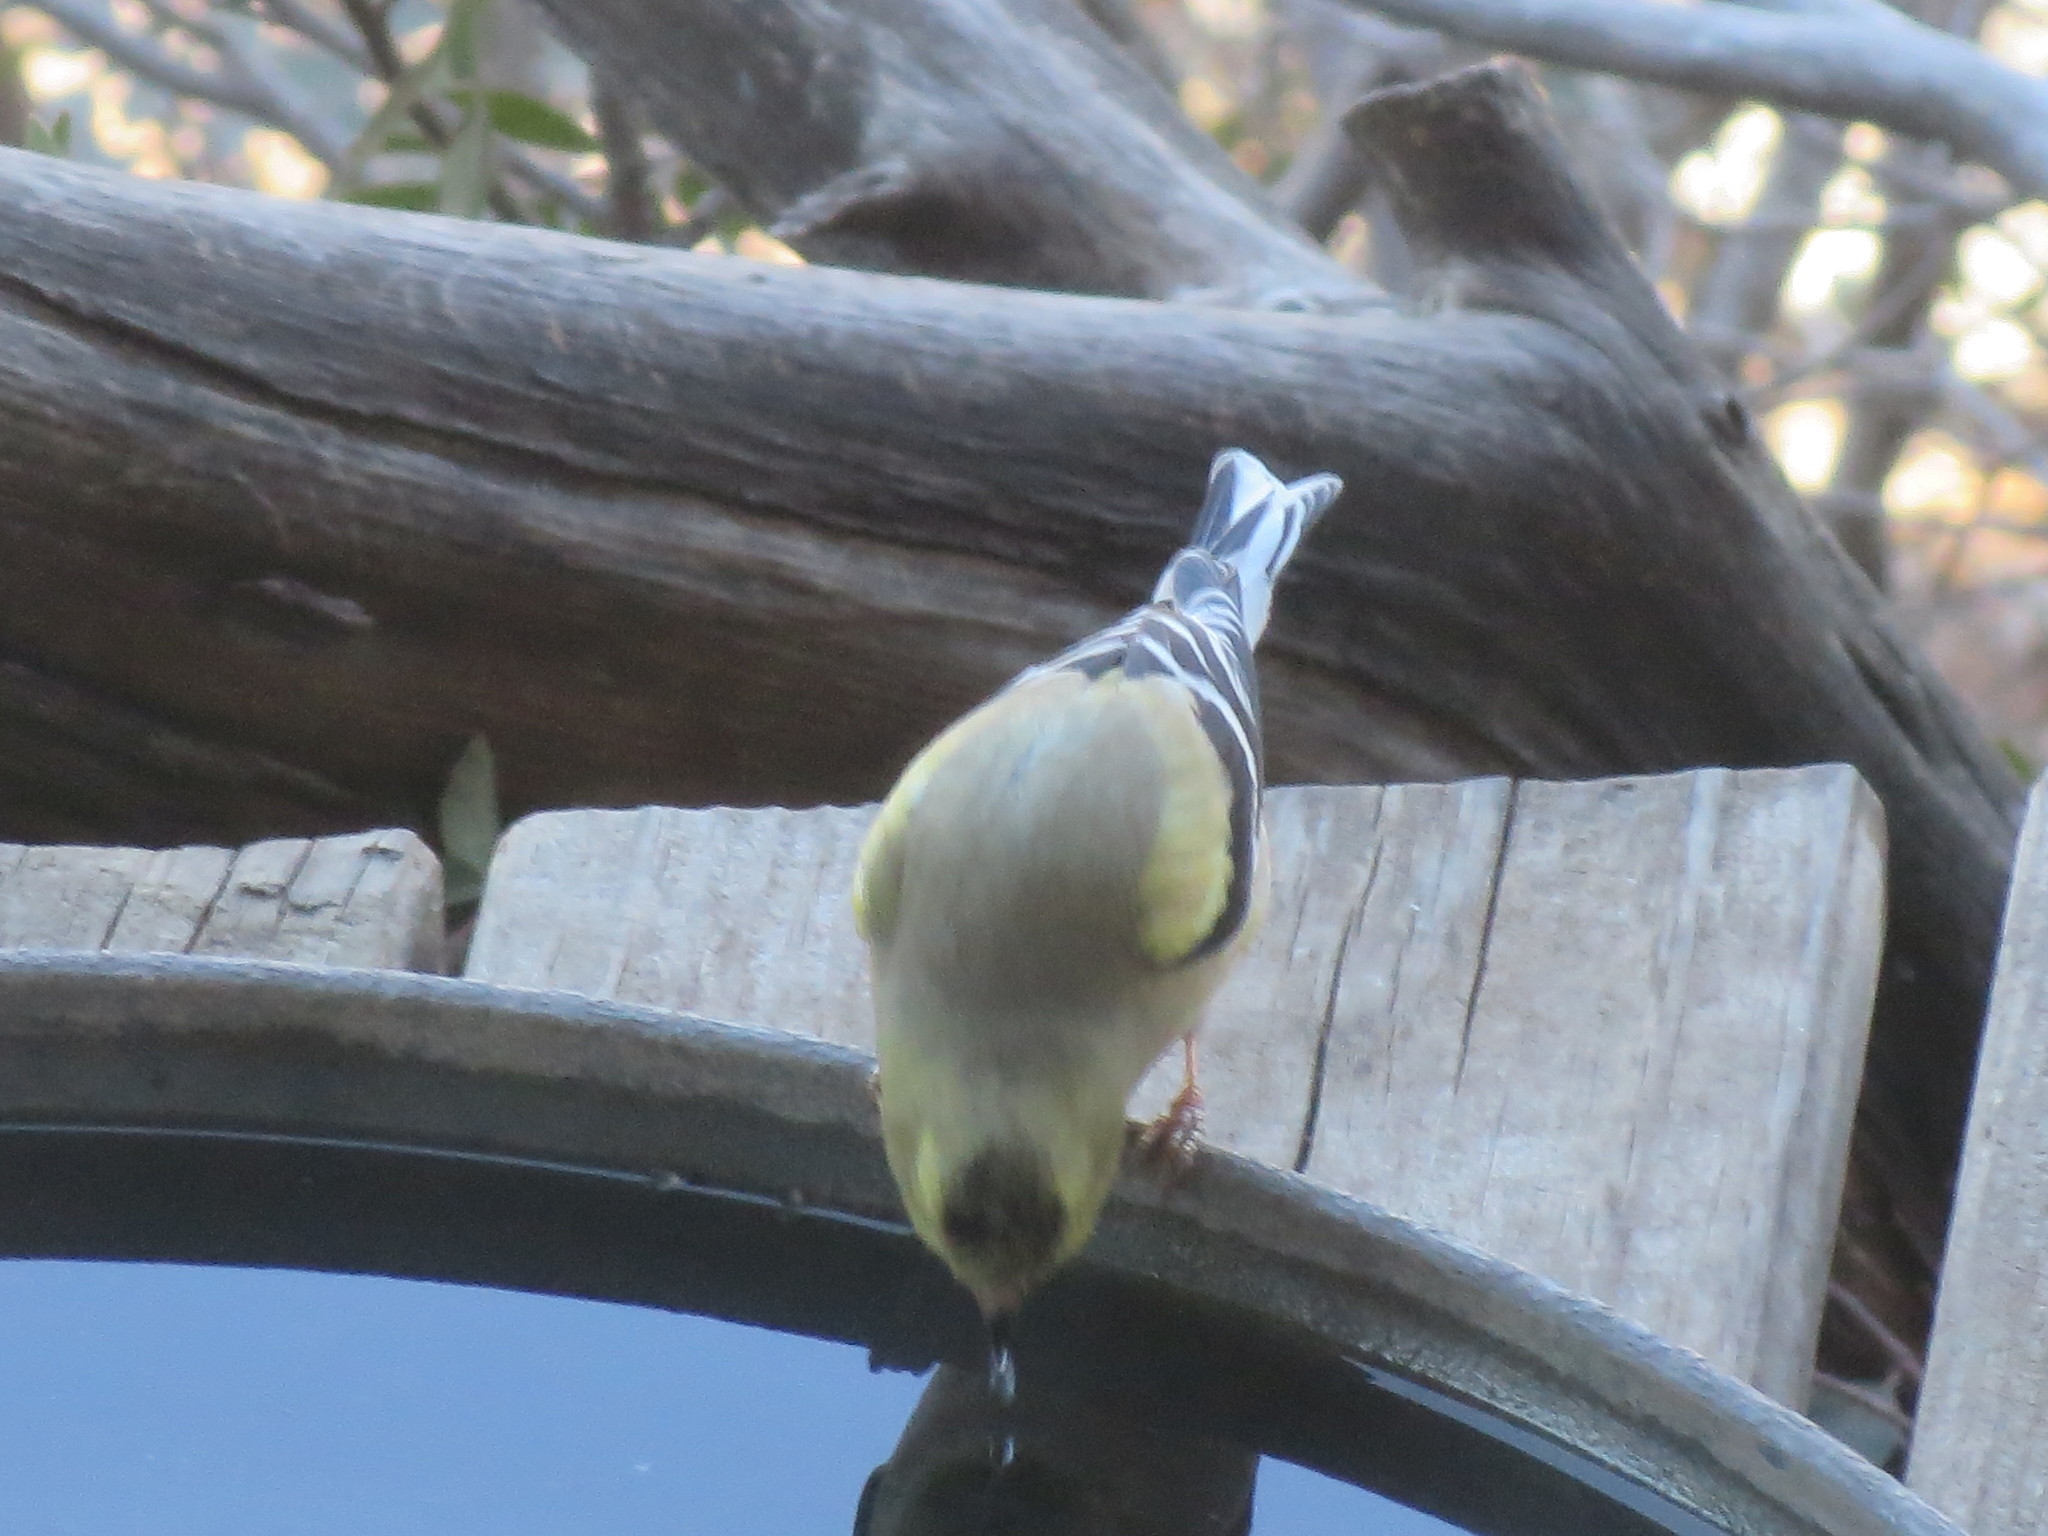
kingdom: Animalia
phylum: Chordata
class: Aves
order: Passeriformes
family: Fringillidae
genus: Spinus
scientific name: Spinus tristis
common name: American goldfinch
